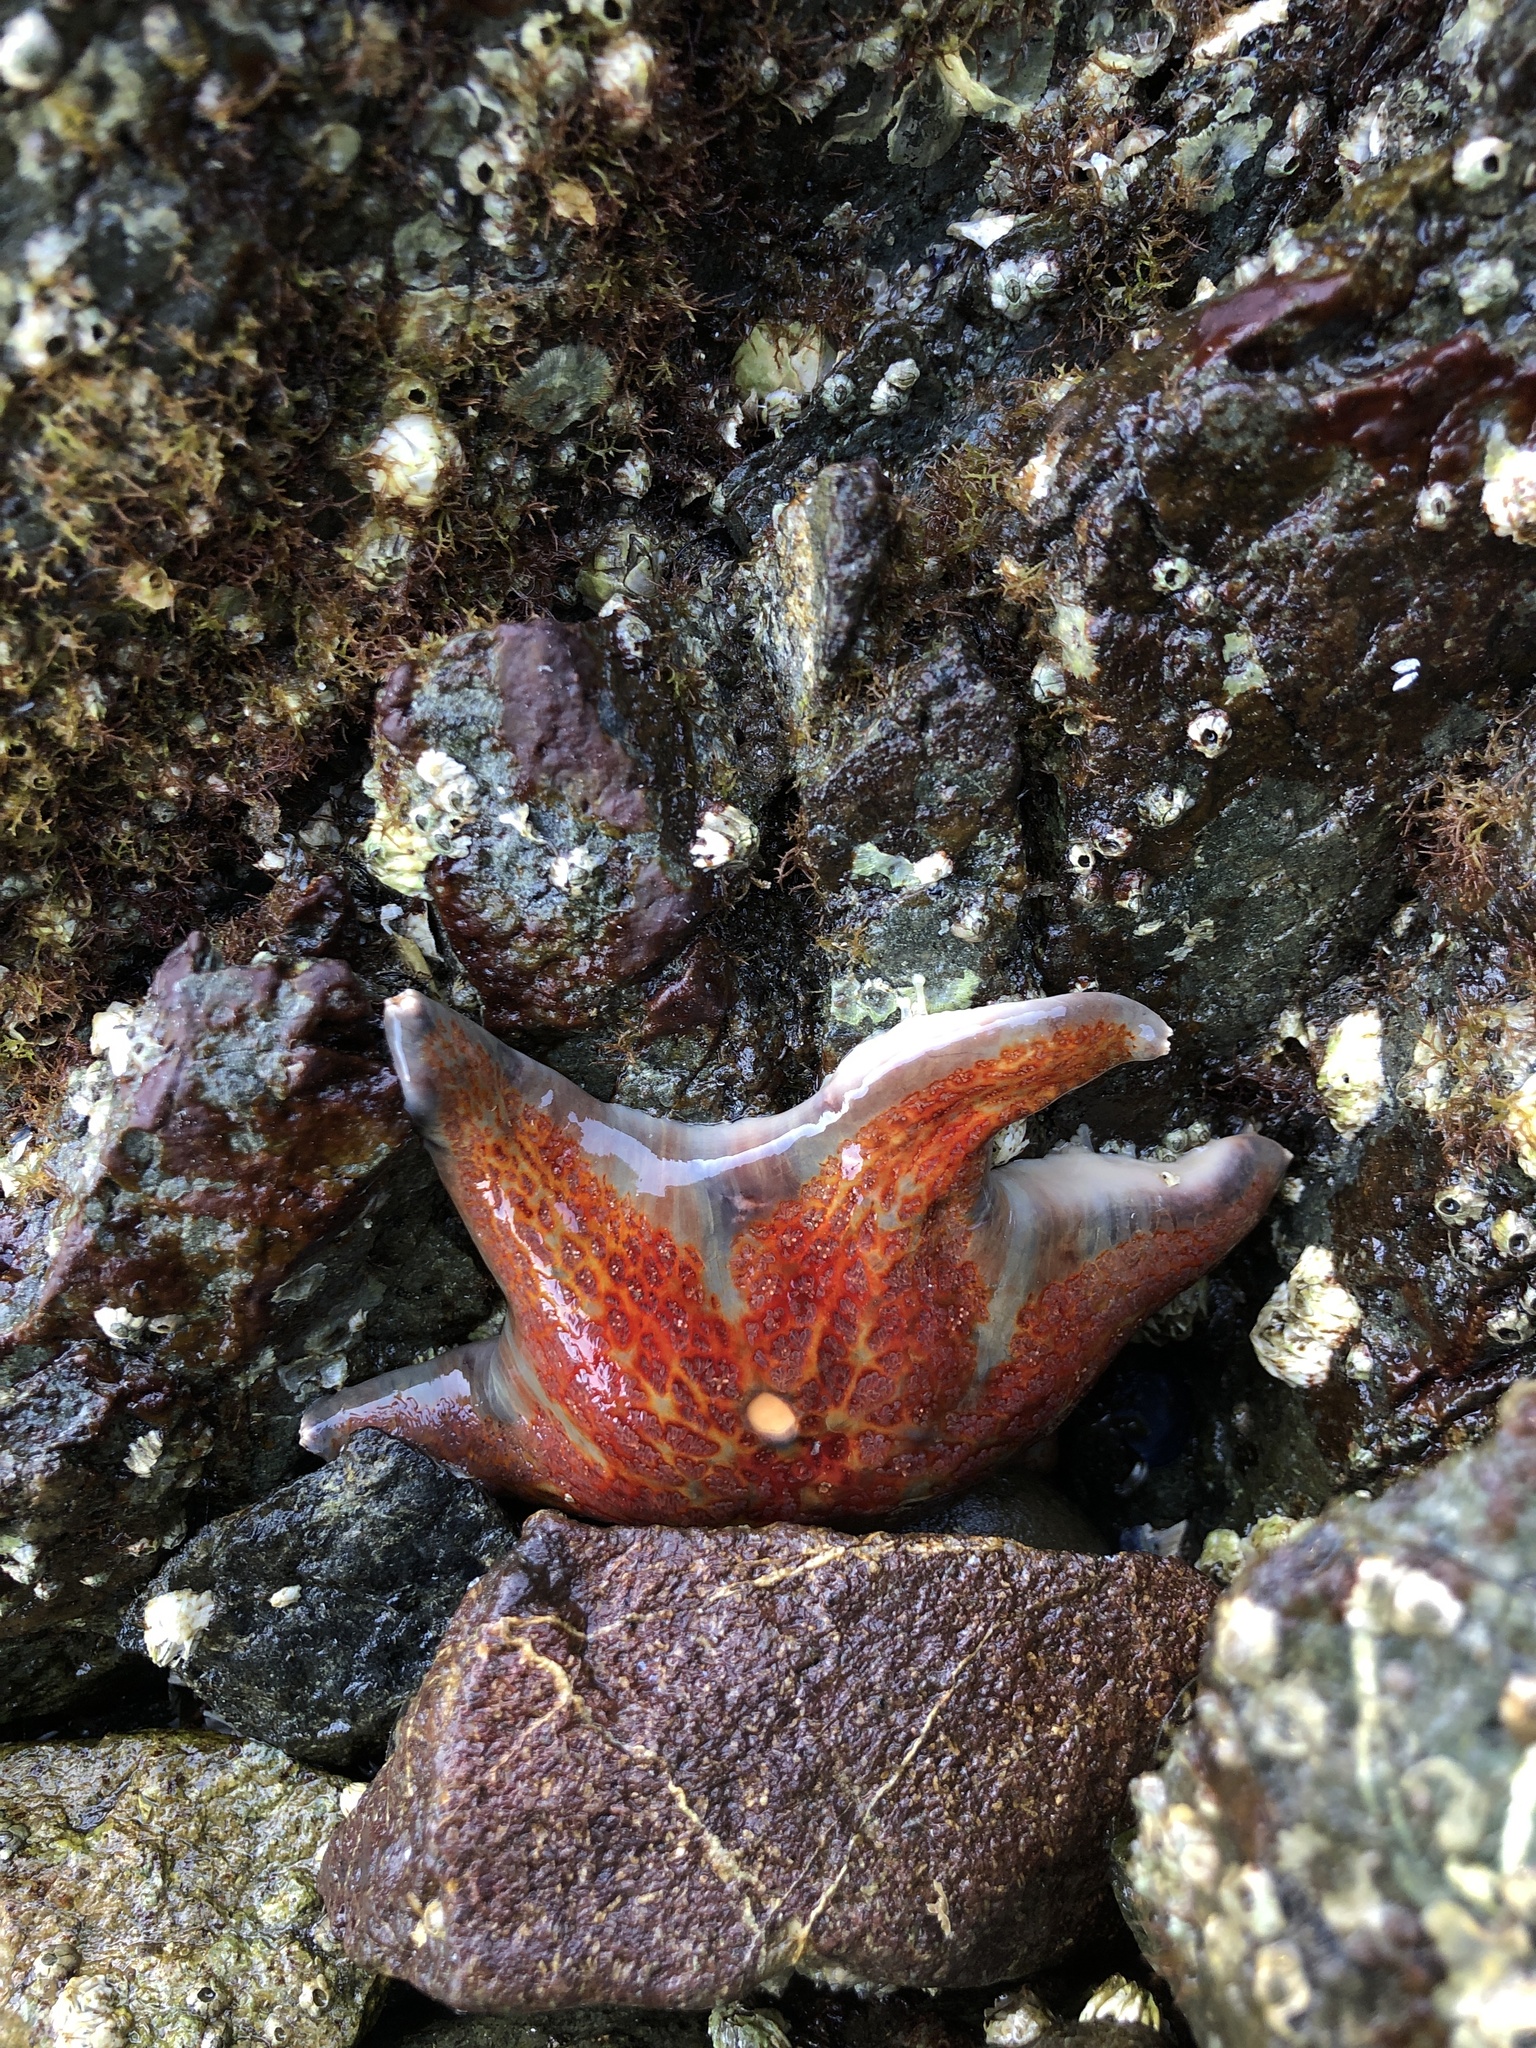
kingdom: Animalia
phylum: Echinodermata
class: Asteroidea
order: Valvatida
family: Asteropseidae
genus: Dermasterias
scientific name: Dermasterias imbricata
